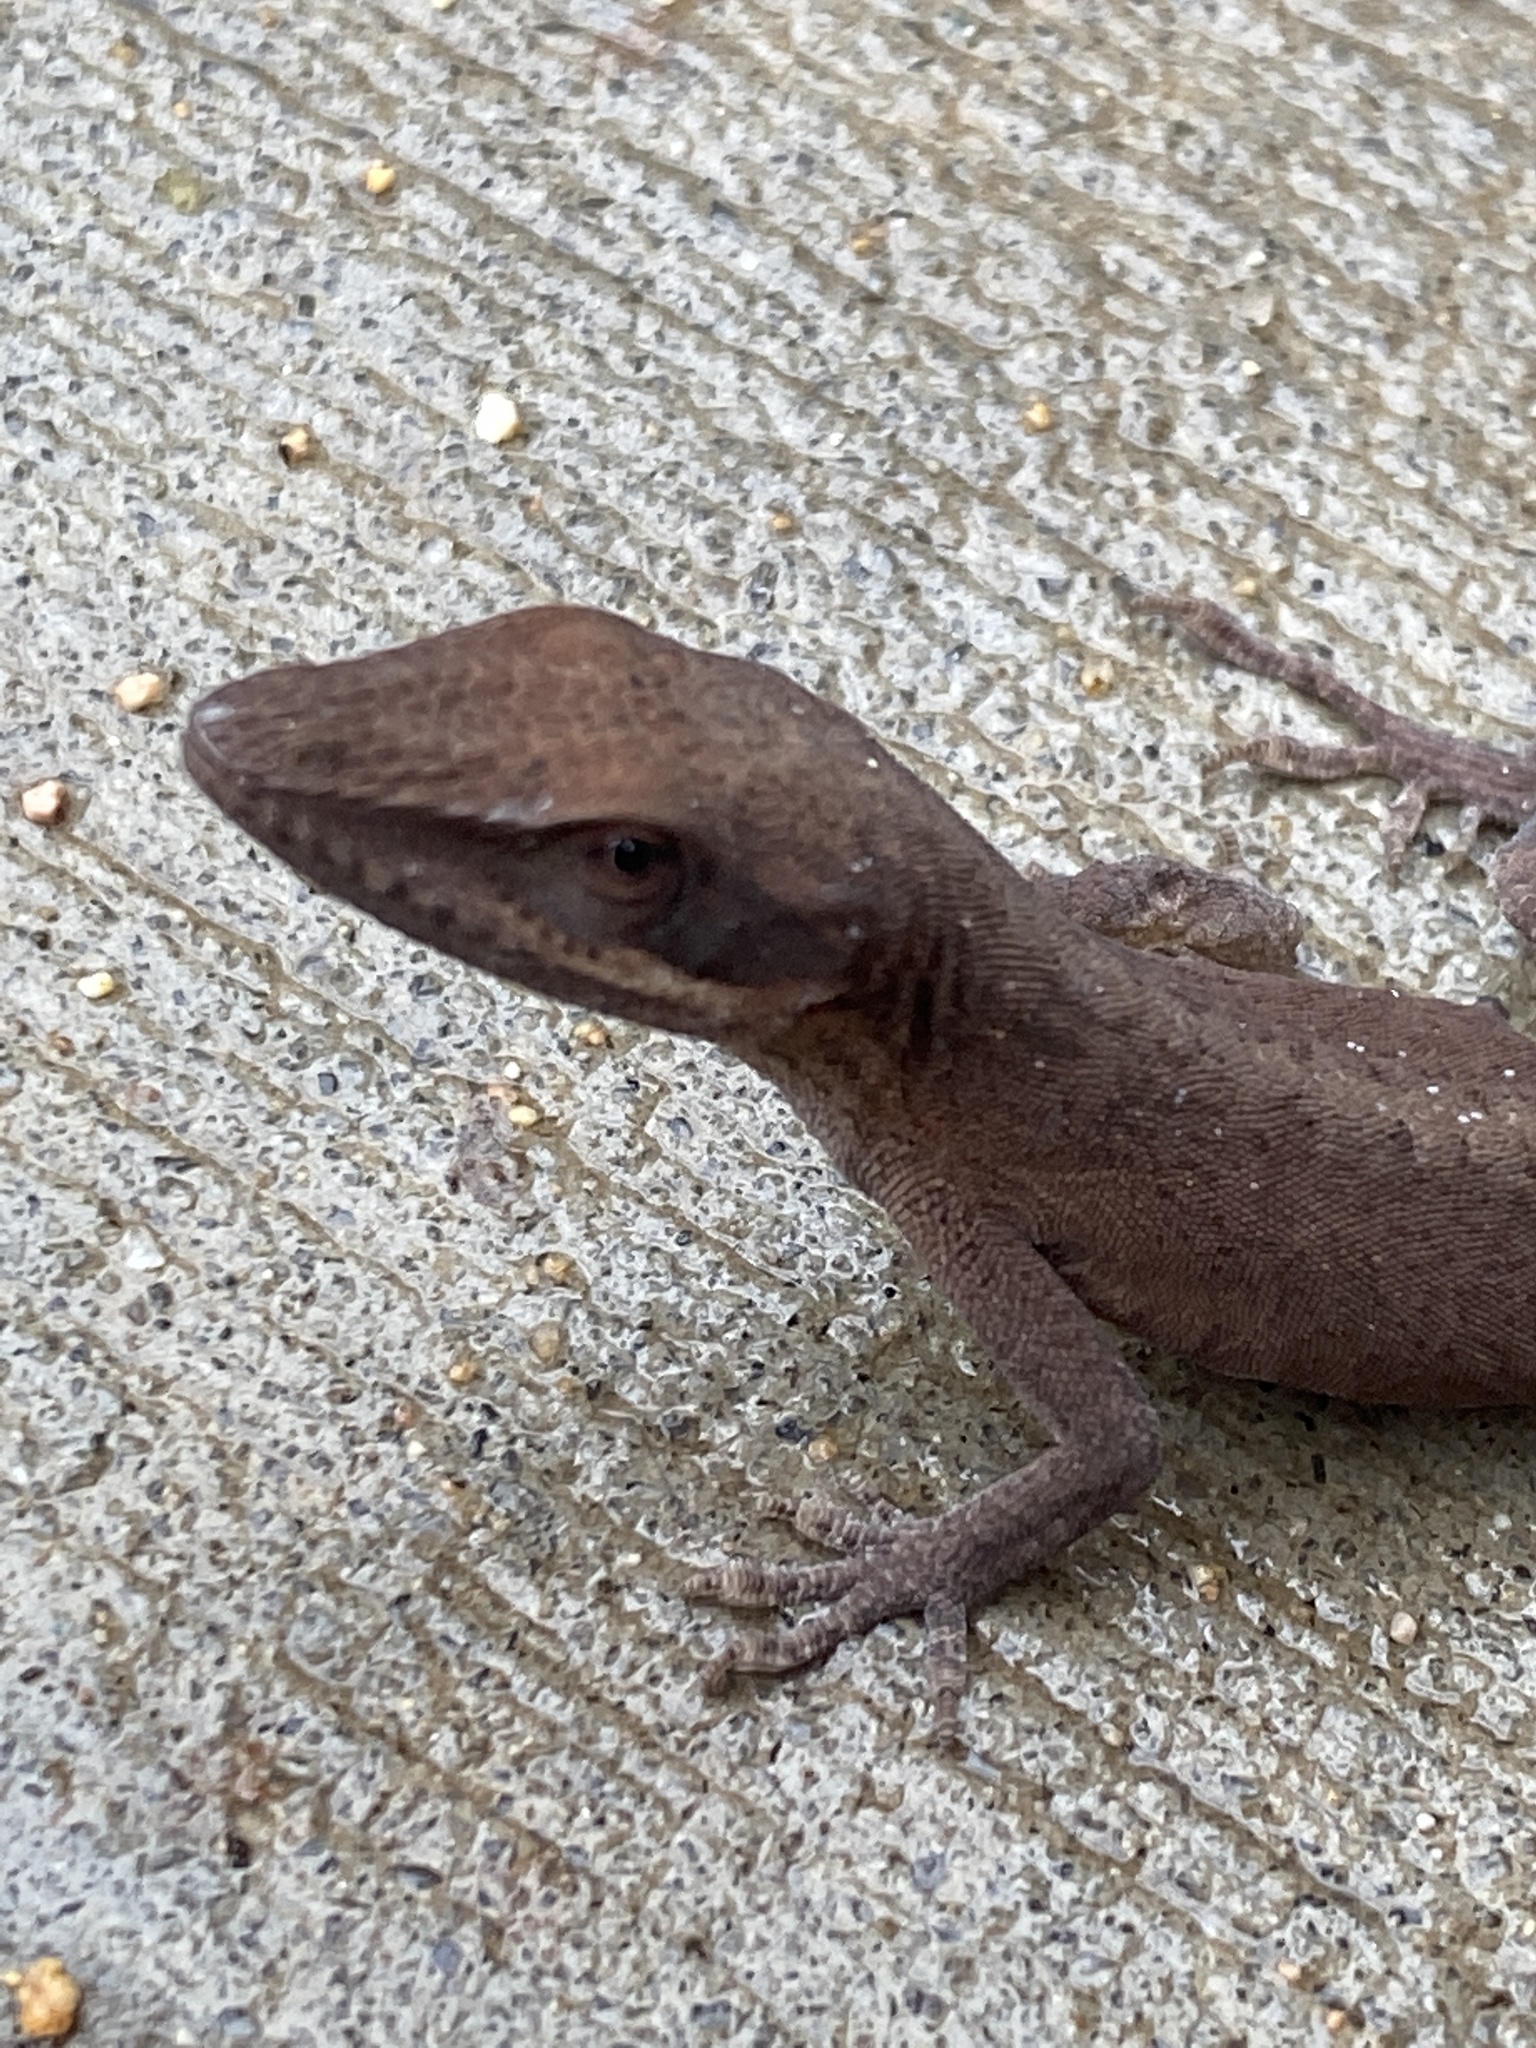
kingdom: Animalia
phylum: Chordata
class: Squamata
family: Dactyloidae
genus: Anolis
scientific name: Anolis carolinensis
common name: Green anole
